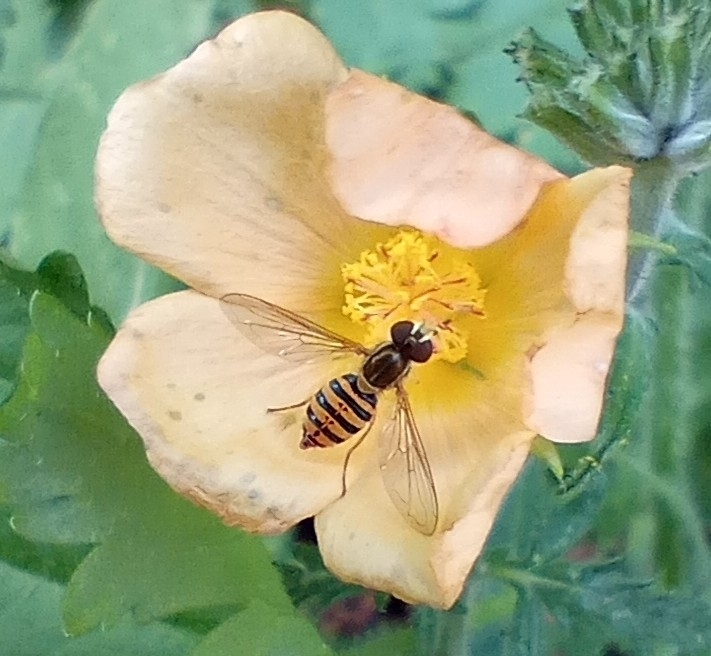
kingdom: Animalia
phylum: Arthropoda
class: Insecta
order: Diptera
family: Syrphidae
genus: Toxomerus
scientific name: Toxomerus
